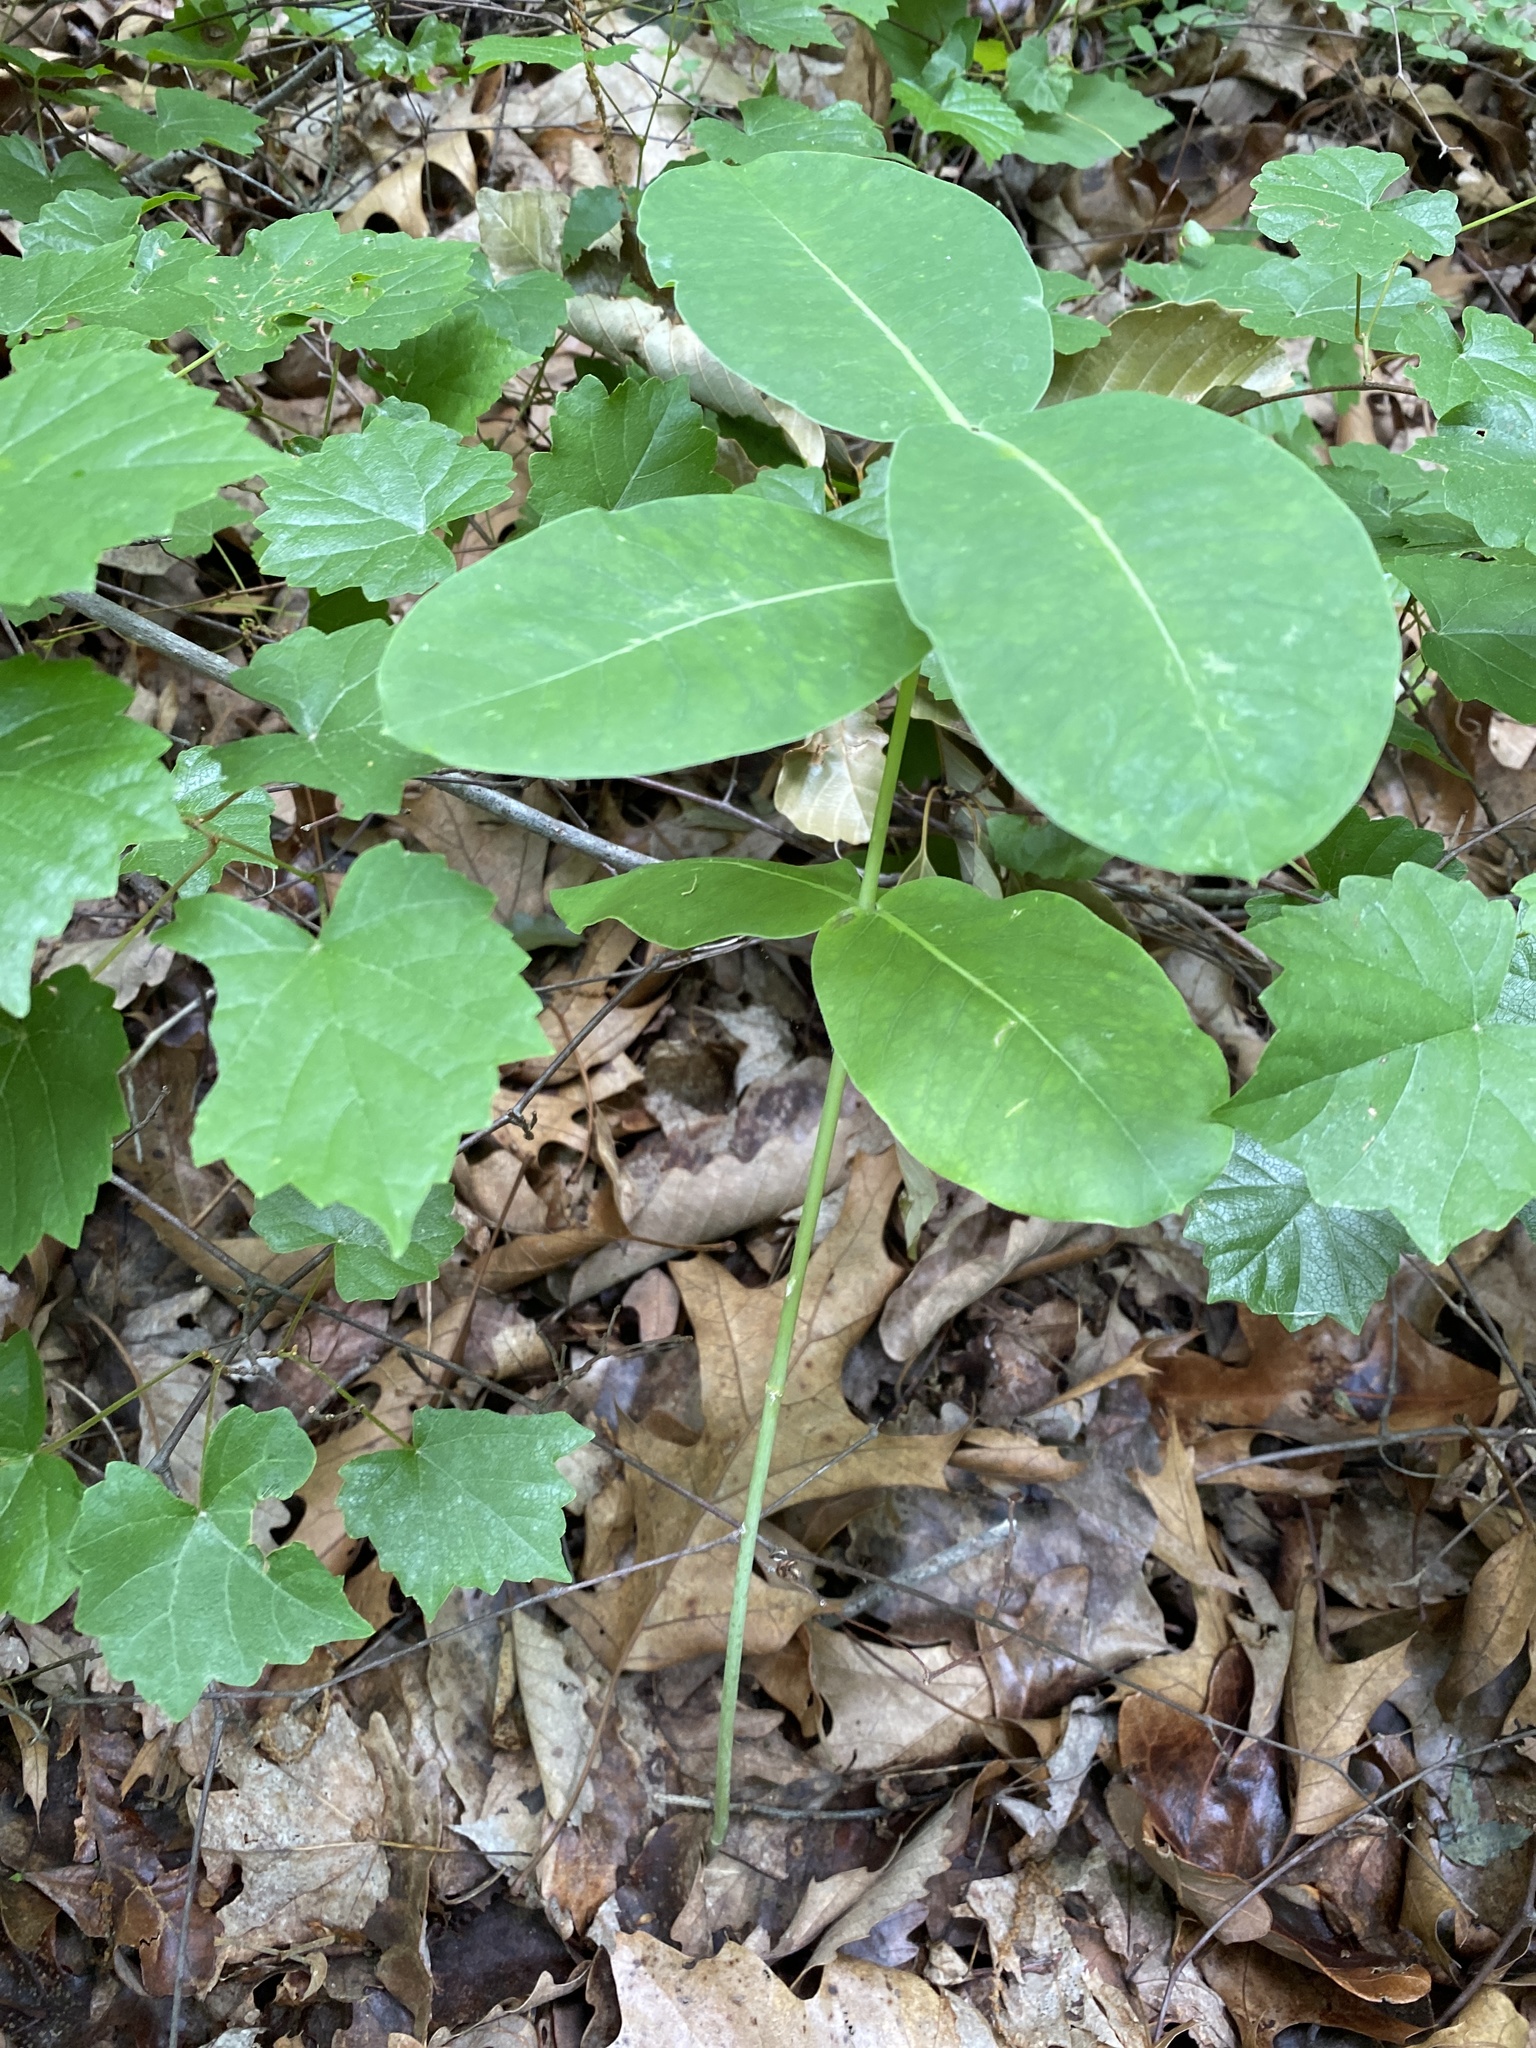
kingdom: Plantae
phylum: Tracheophyta
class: Magnoliopsida
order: Gentianales
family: Apocynaceae
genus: Asclepias
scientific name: Asclepias variegata
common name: Variegated milkweed
